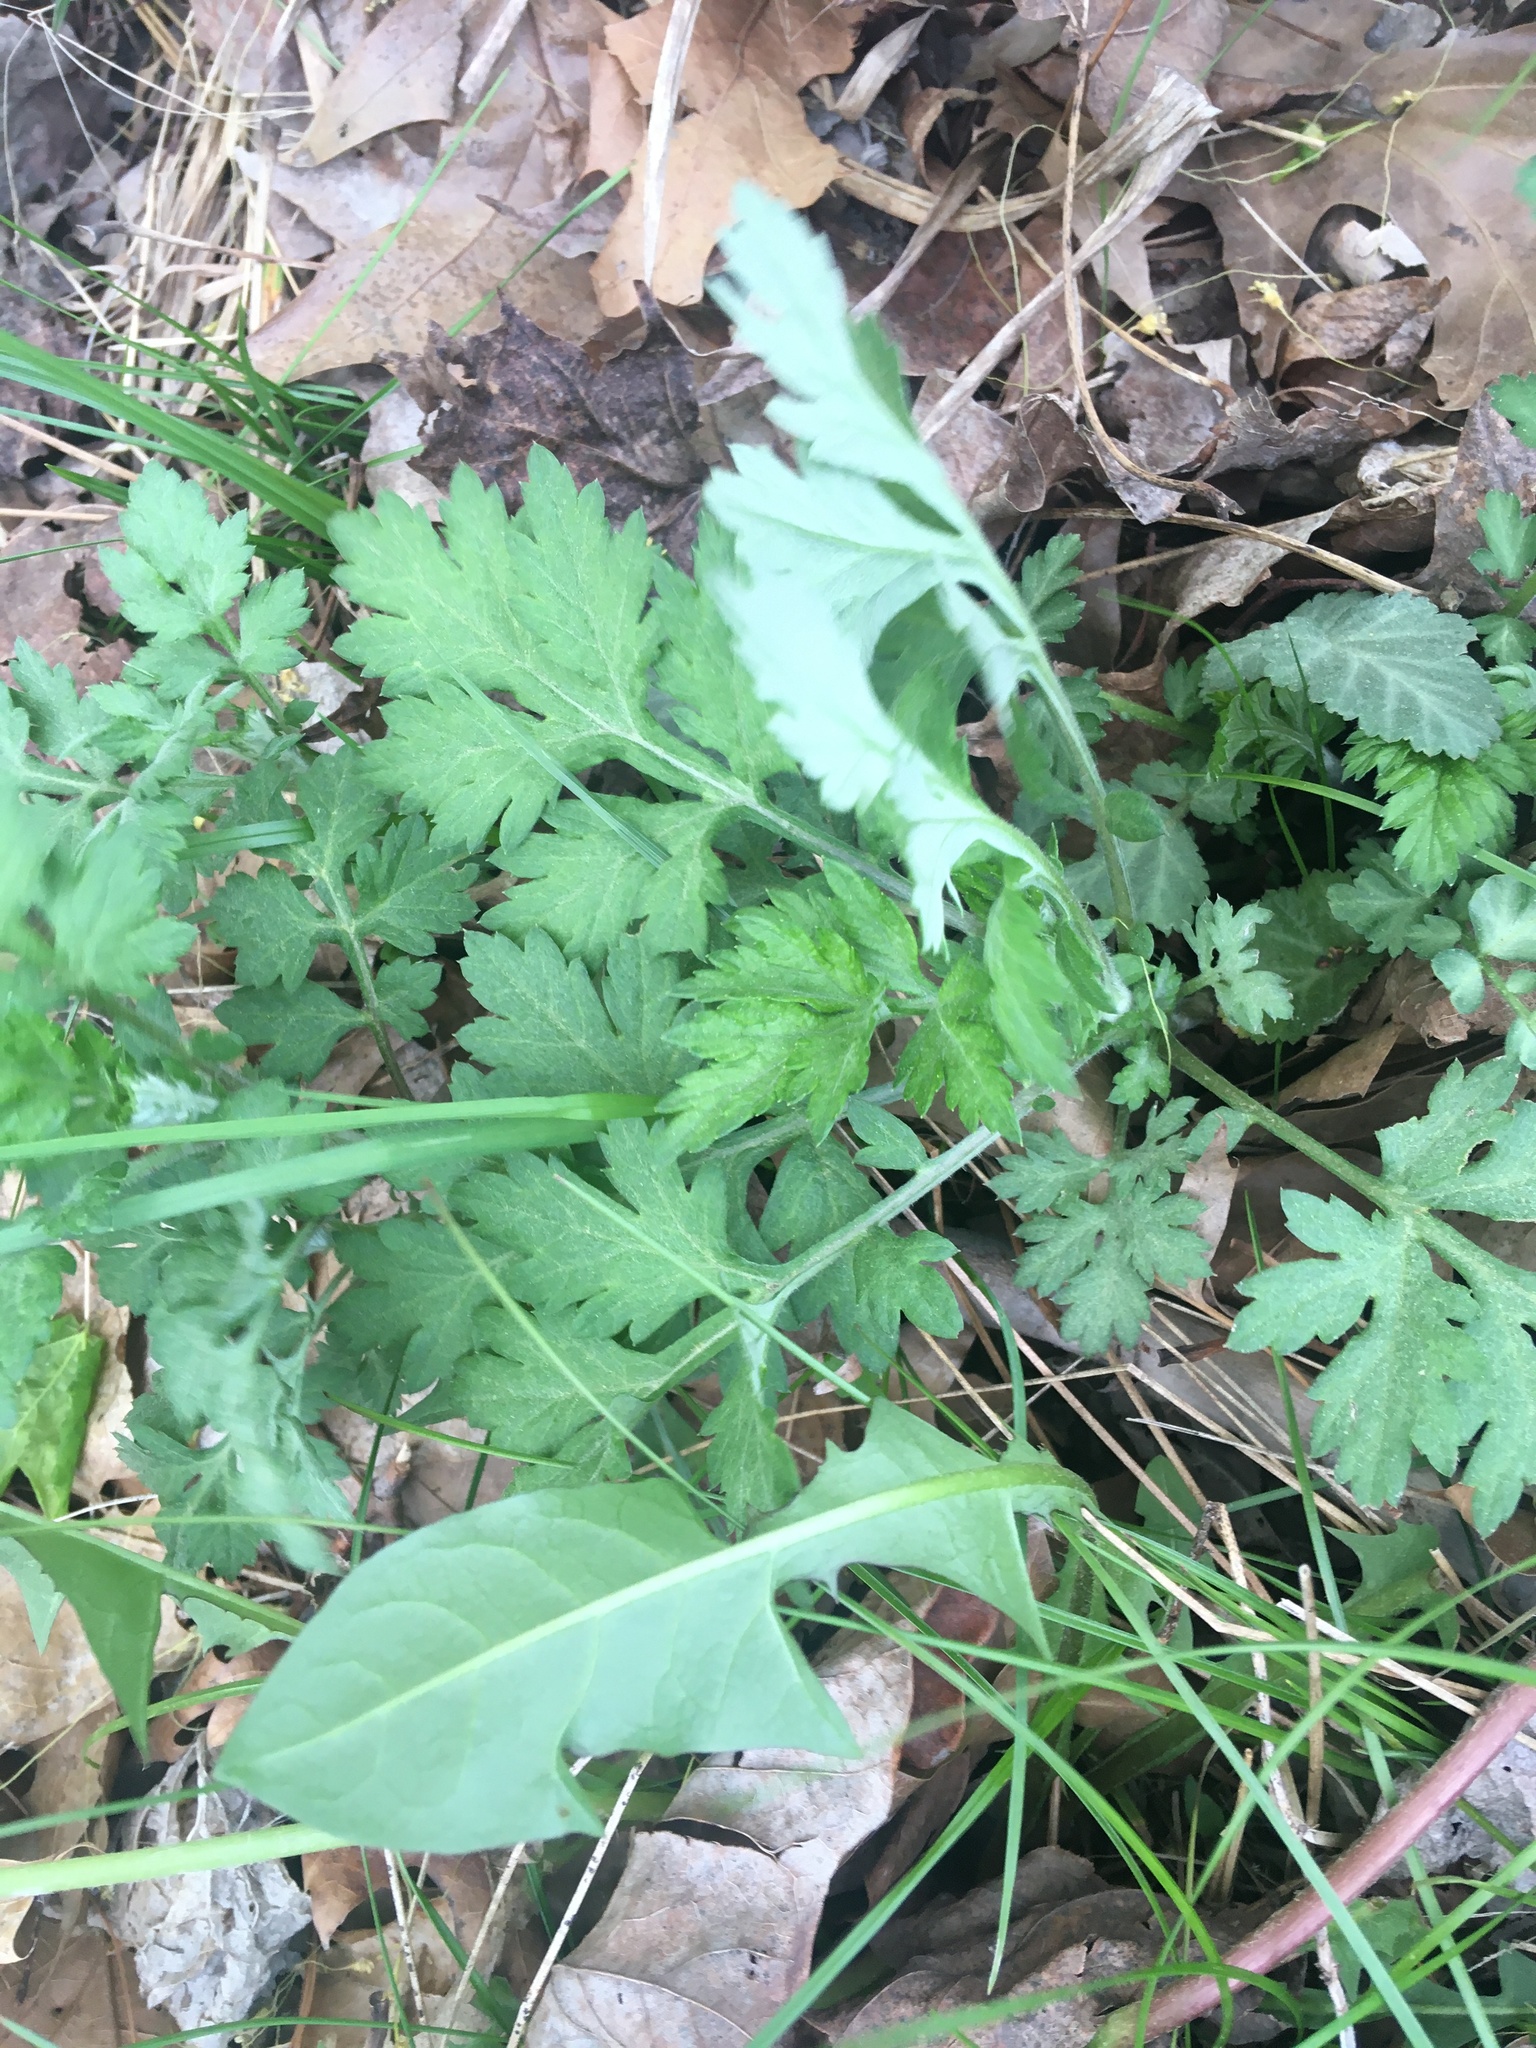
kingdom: Plantae
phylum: Tracheophyta
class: Magnoliopsida
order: Asterales
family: Asteraceae
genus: Artemisia
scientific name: Artemisia vulgaris
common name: Mugwort
